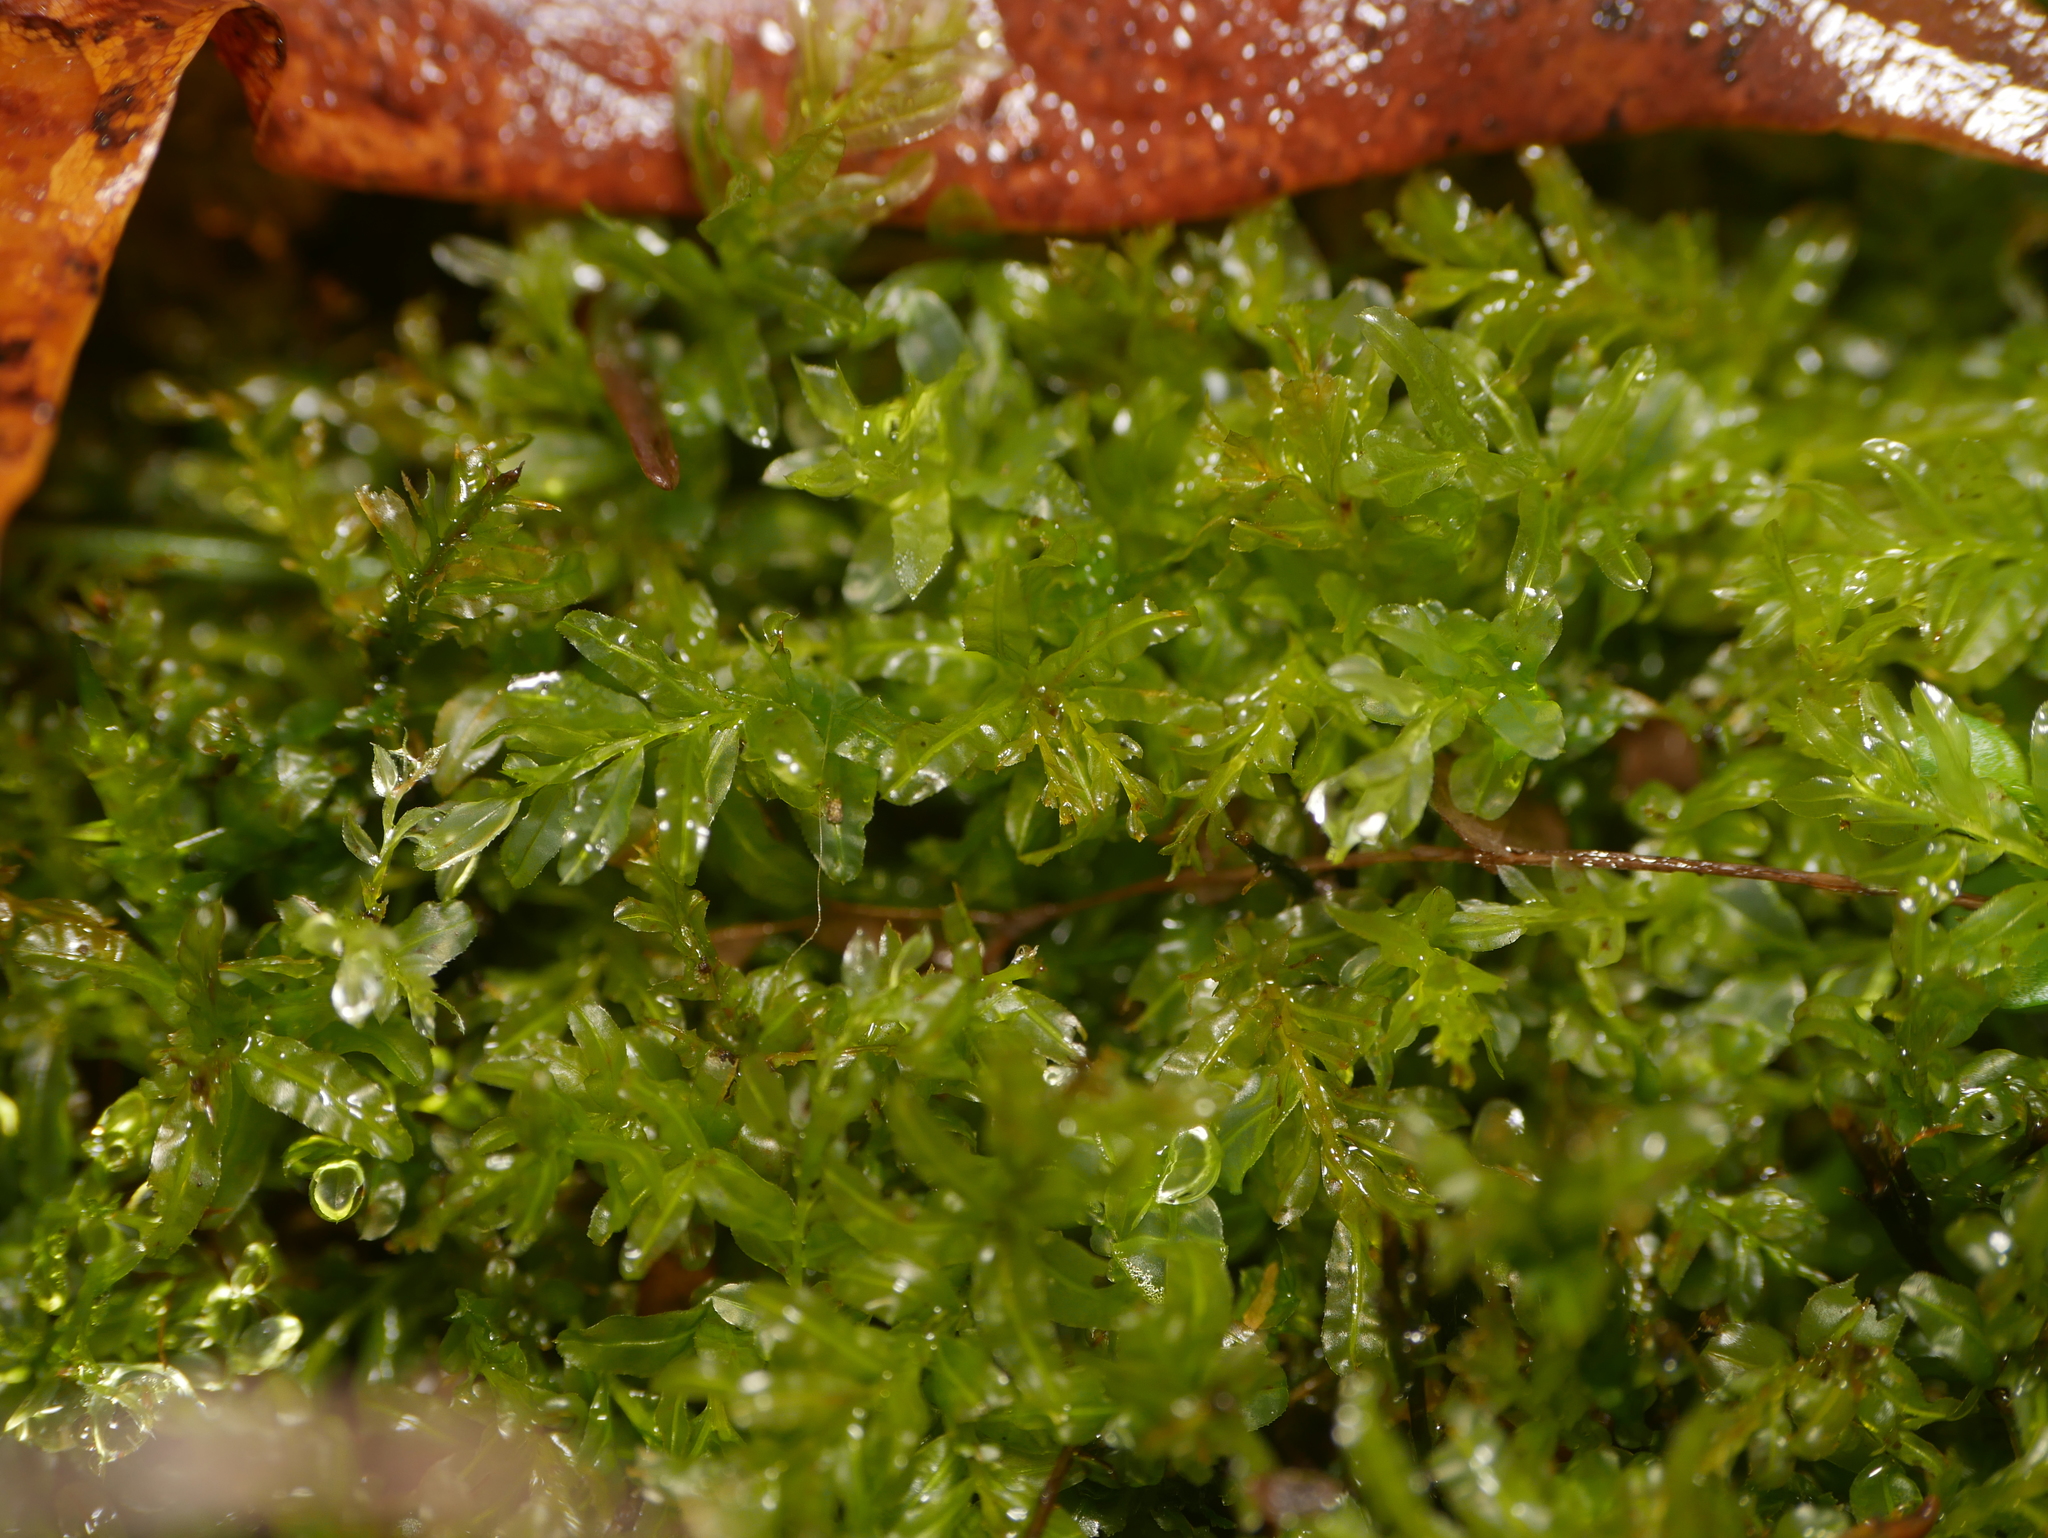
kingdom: Plantae
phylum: Bryophyta
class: Bryopsida
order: Bryales
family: Mniaceae
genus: Plagiomnium
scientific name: Plagiomnium undulatum
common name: Hart's-tongue thyme-moss
